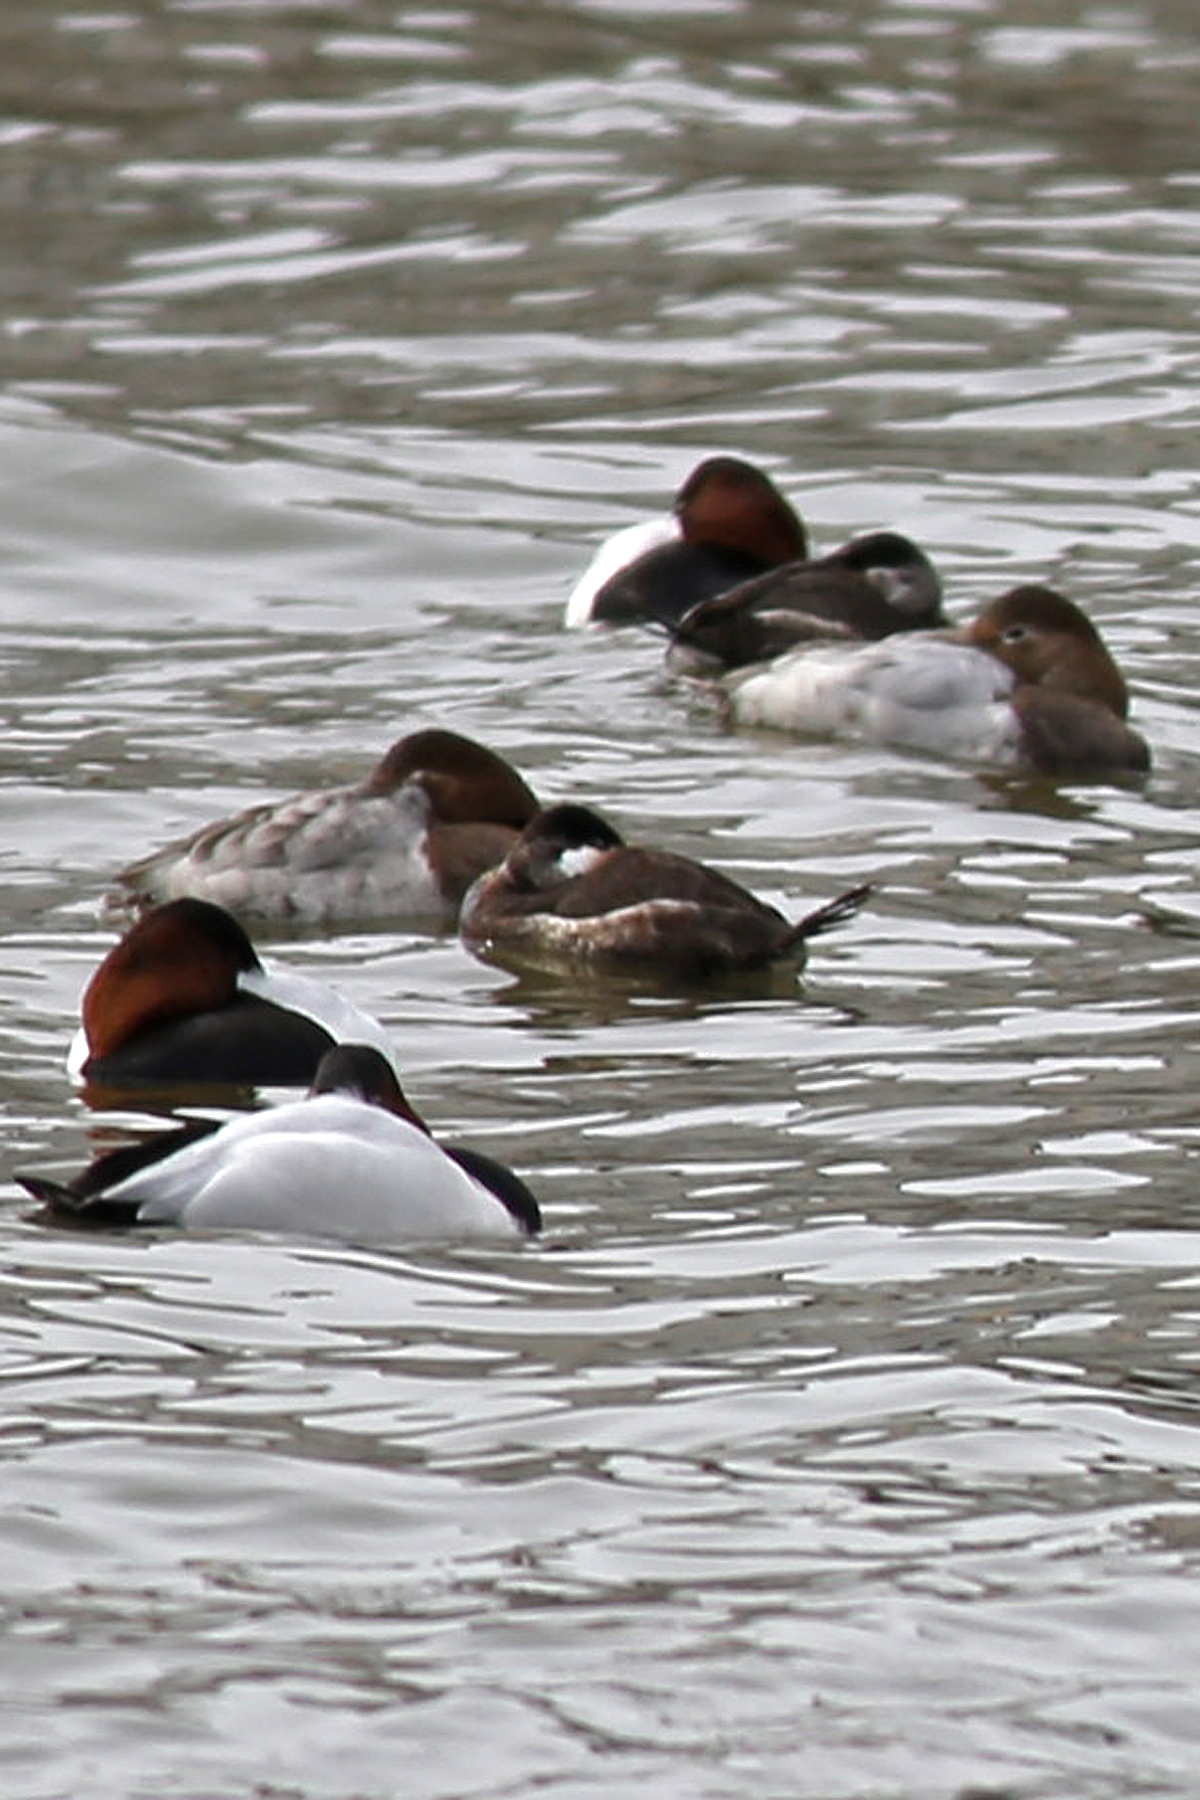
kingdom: Animalia
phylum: Chordata
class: Aves
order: Anseriformes
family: Anatidae
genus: Oxyura
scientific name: Oxyura jamaicensis
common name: Ruddy duck
